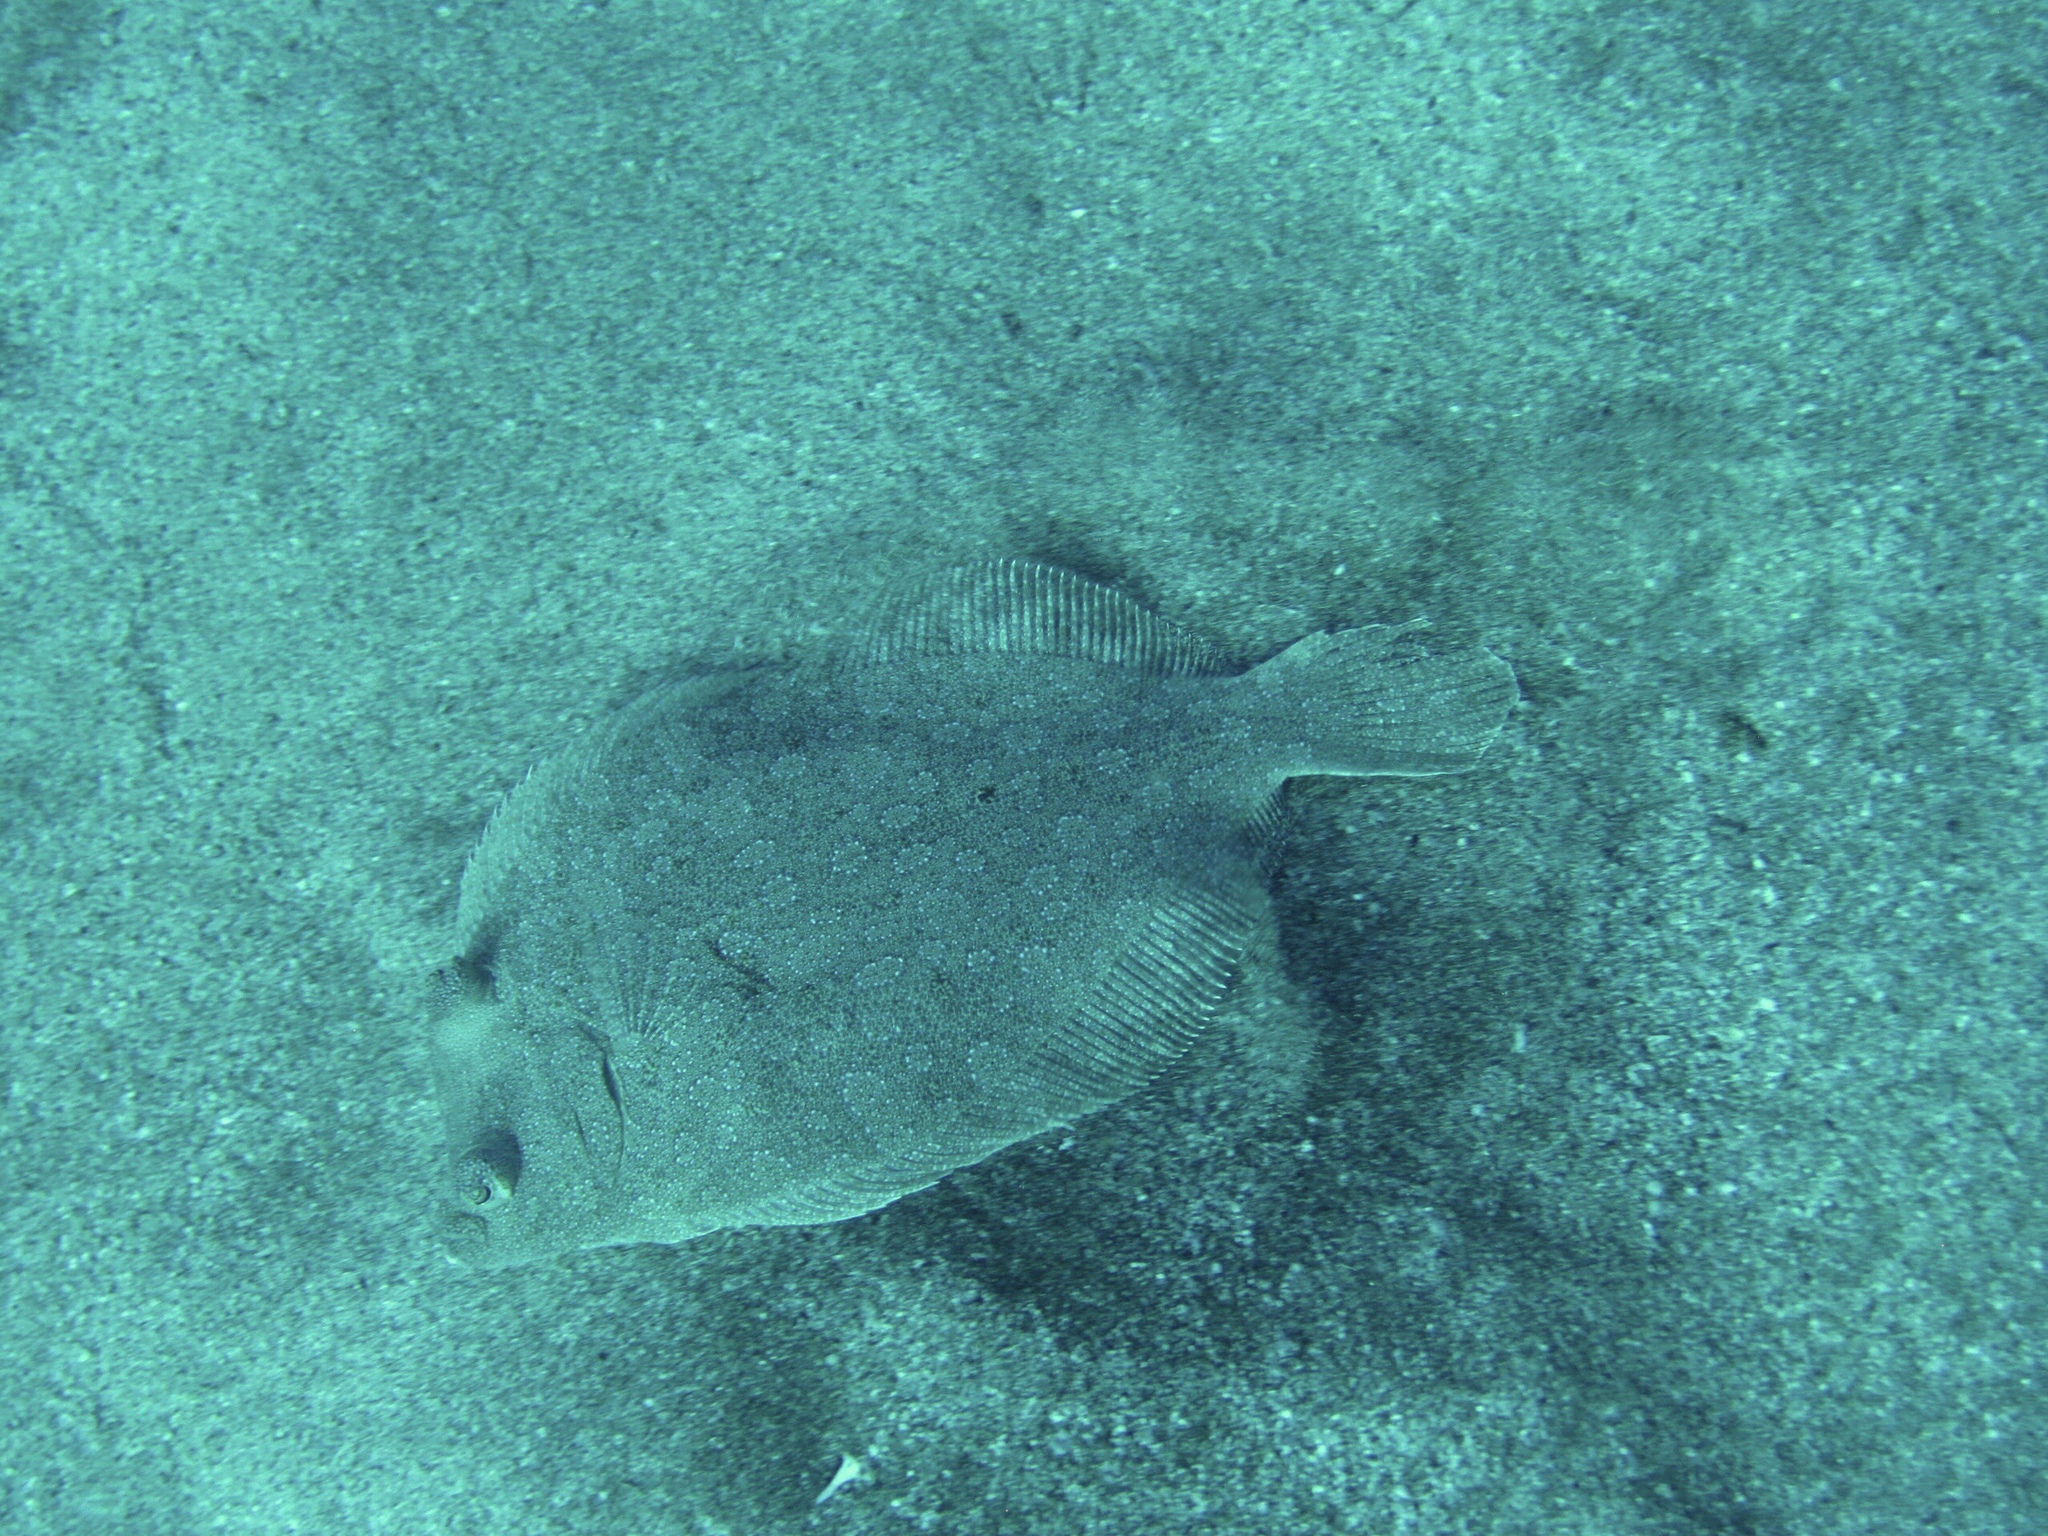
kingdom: Animalia
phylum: Chordata
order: Pleuronectiformes
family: Bothidae
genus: Bothus
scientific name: Bothus podas
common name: Wide-eyed flounder
